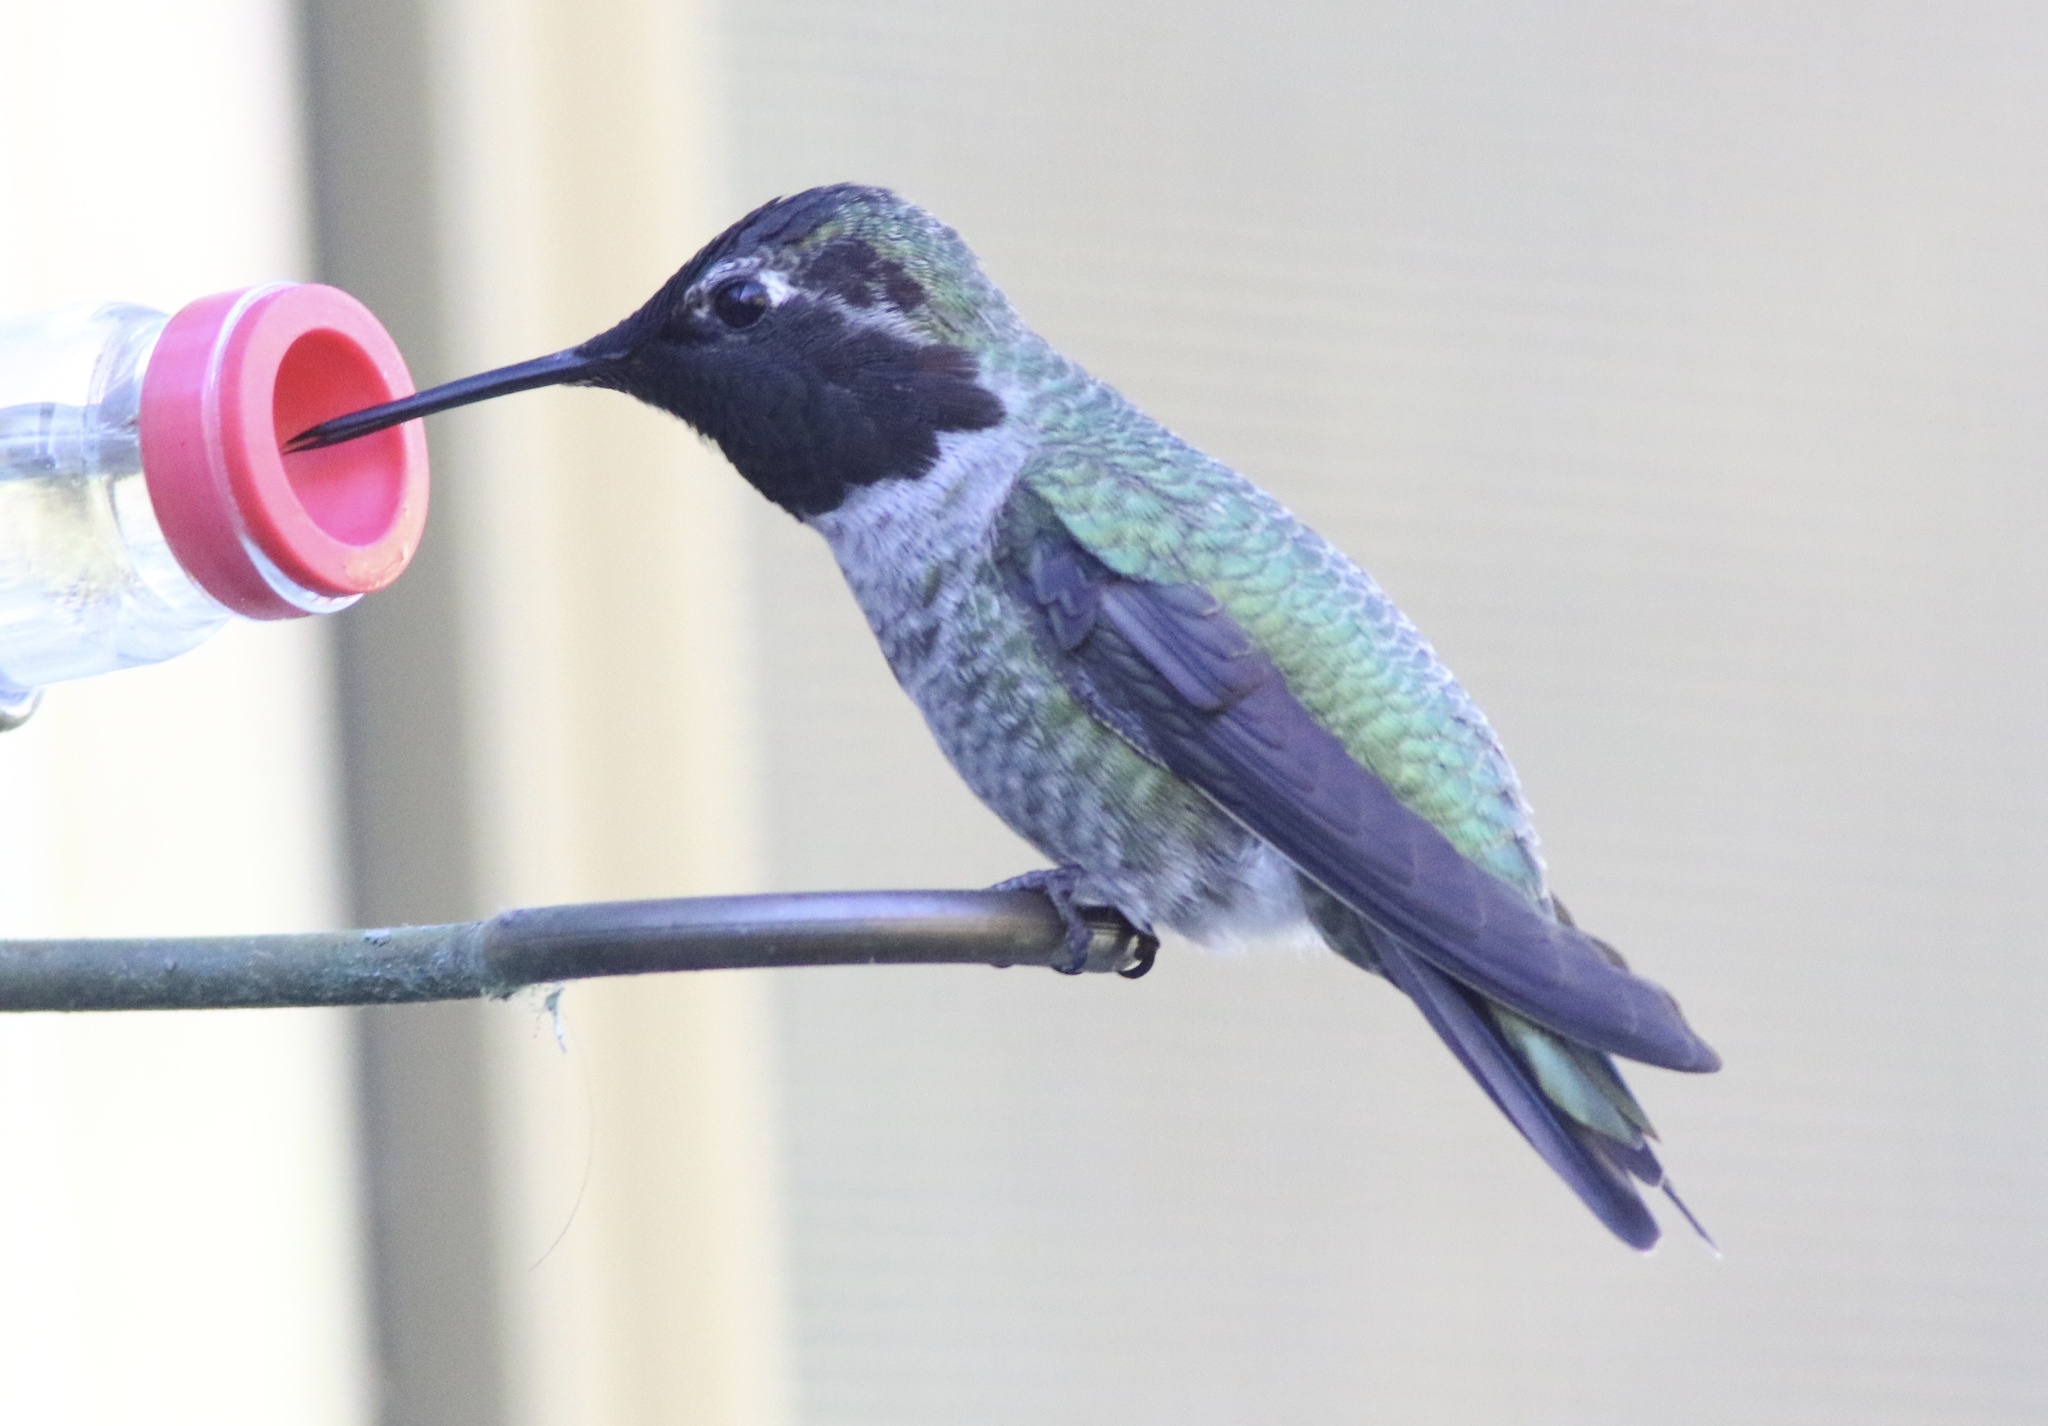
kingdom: Animalia
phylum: Chordata
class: Aves
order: Apodiformes
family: Trochilidae
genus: Calypte
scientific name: Calypte anna
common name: Anna's hummingbird
